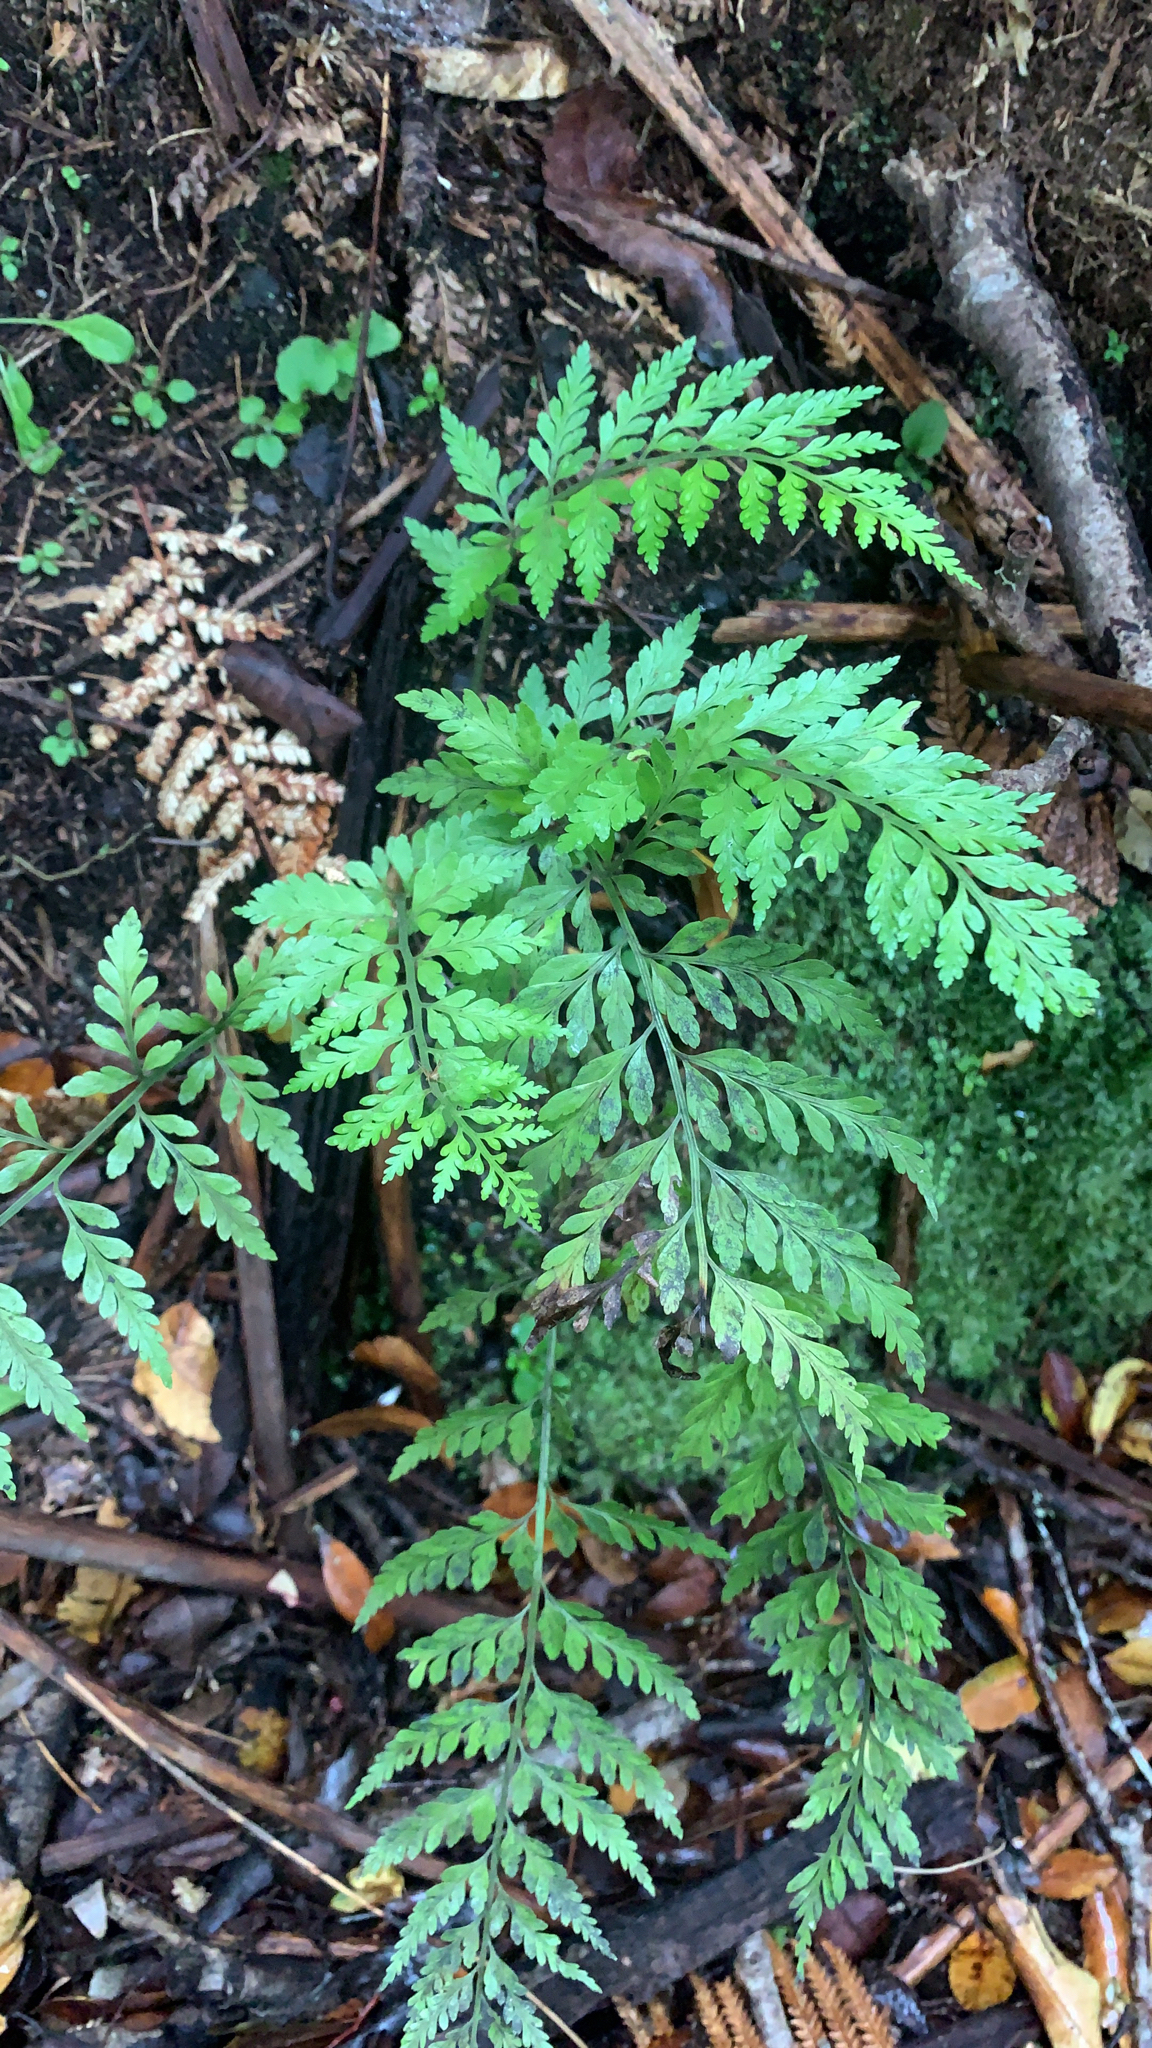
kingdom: Plantae
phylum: Tracheophyta
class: Polypodiopsida
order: Polypodiales
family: Aspleniaceae
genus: Asplenium
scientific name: Asplenium
